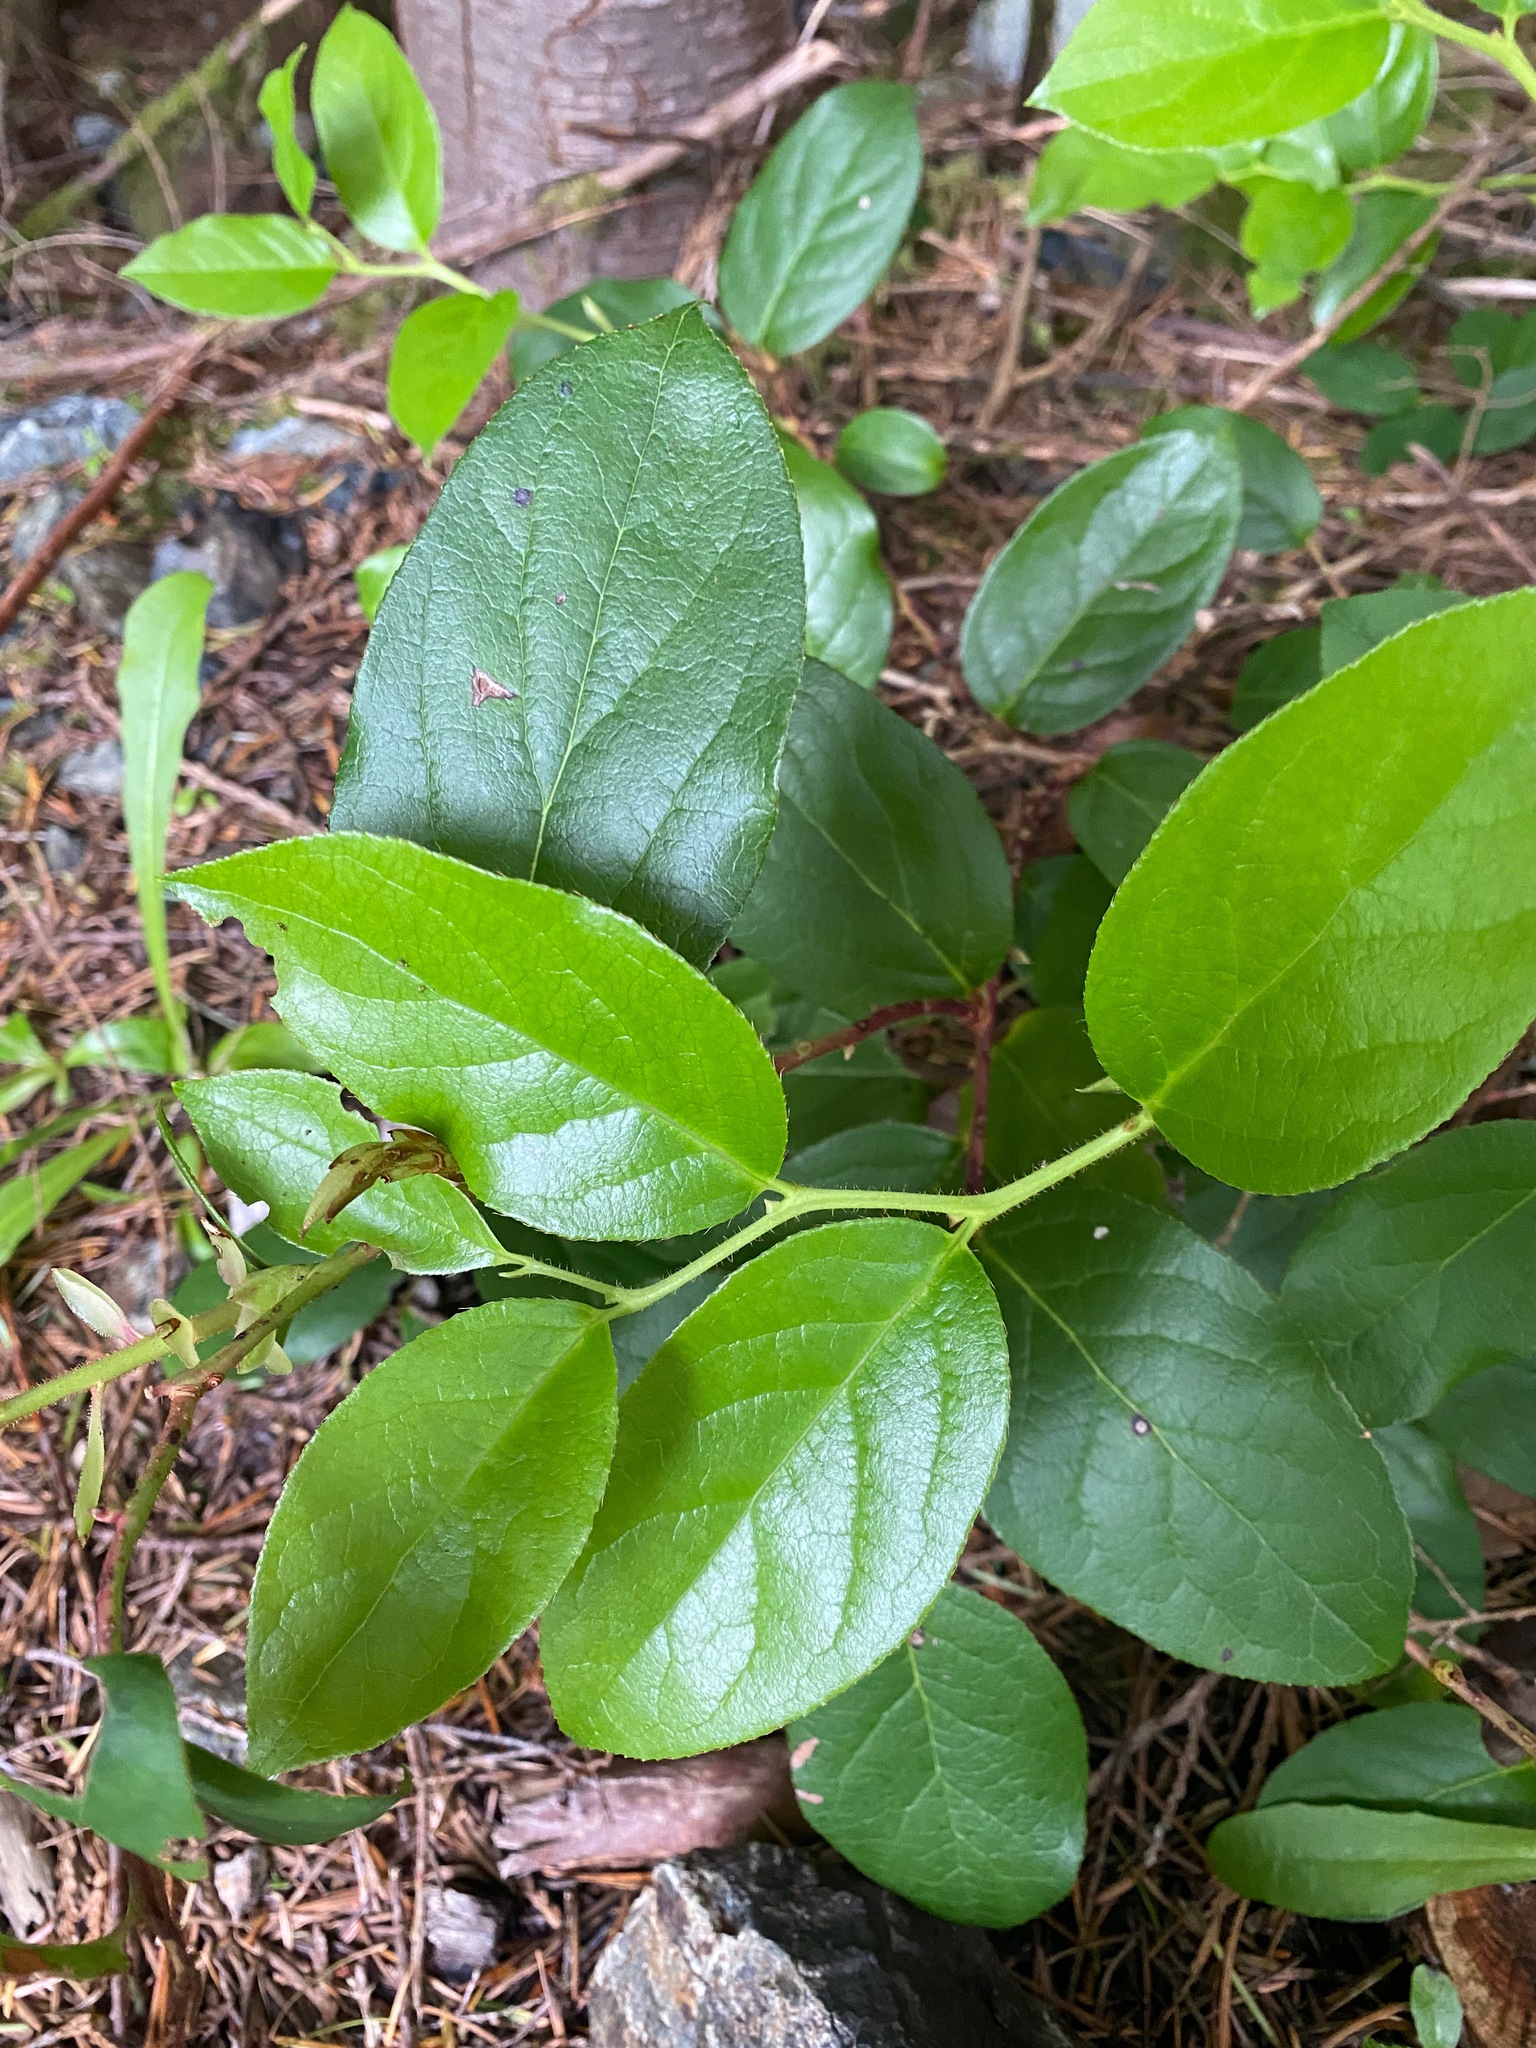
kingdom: Plantae
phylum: Tracheophyta
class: Magnoliopsida
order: Ericales
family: Ericaceae
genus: Gaultheria
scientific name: Gaultheria shallon
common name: Shallon
